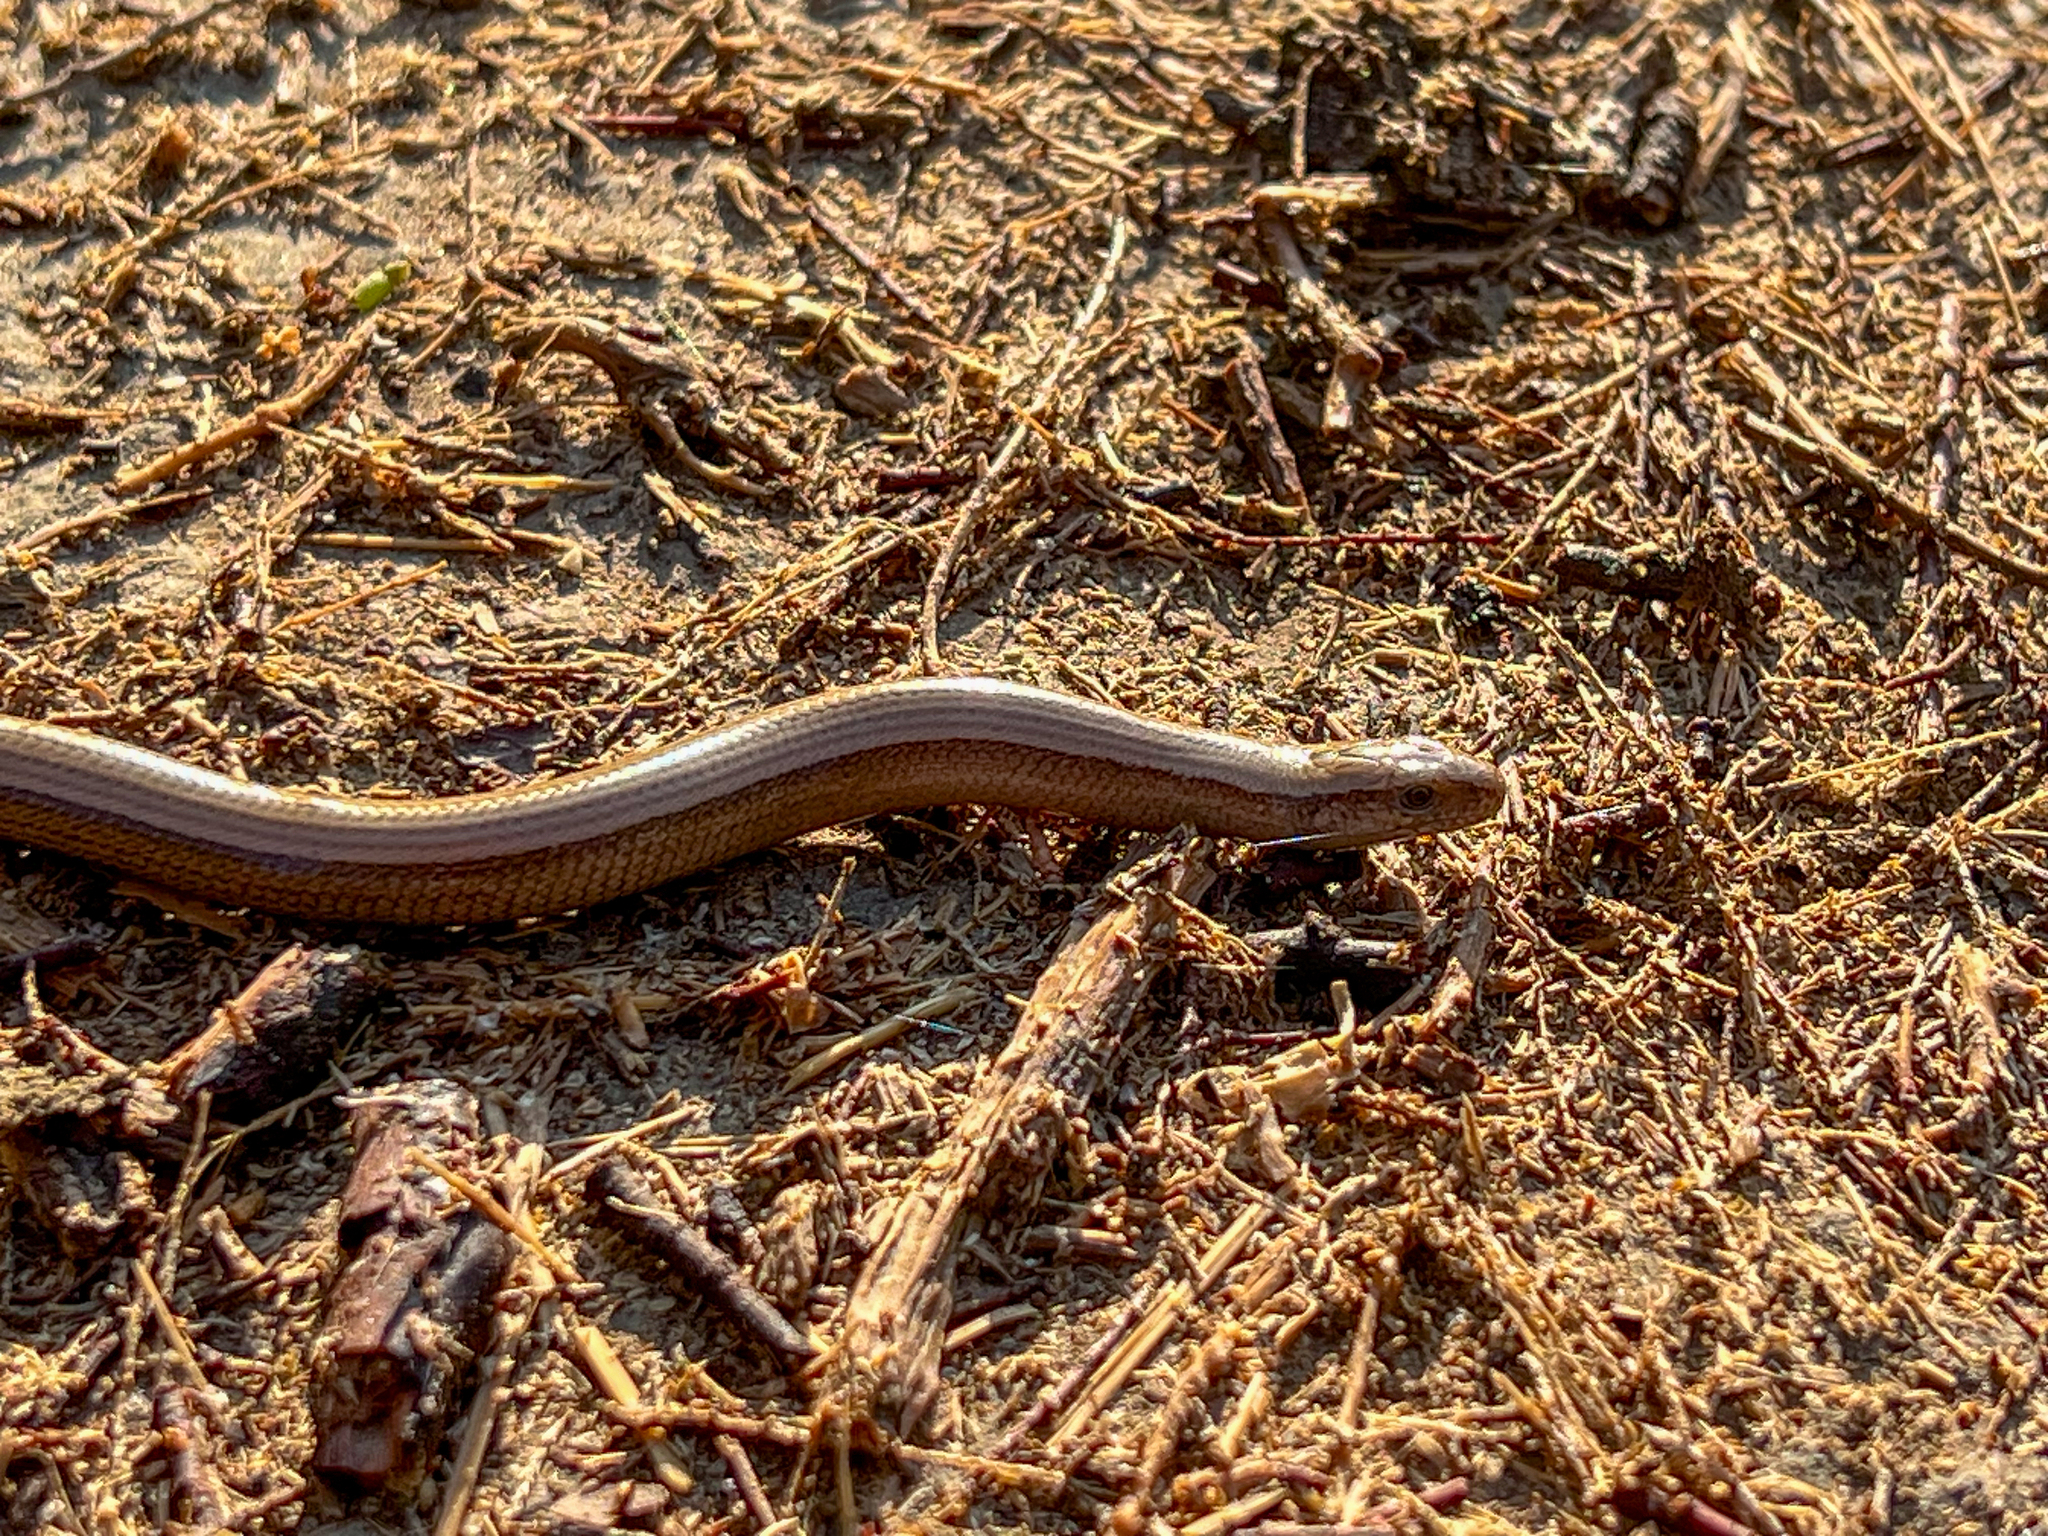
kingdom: Animalia
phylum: Chordata
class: Squamata
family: Anguidae
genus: Anguis
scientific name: Anguis fragilis
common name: Slow worm
